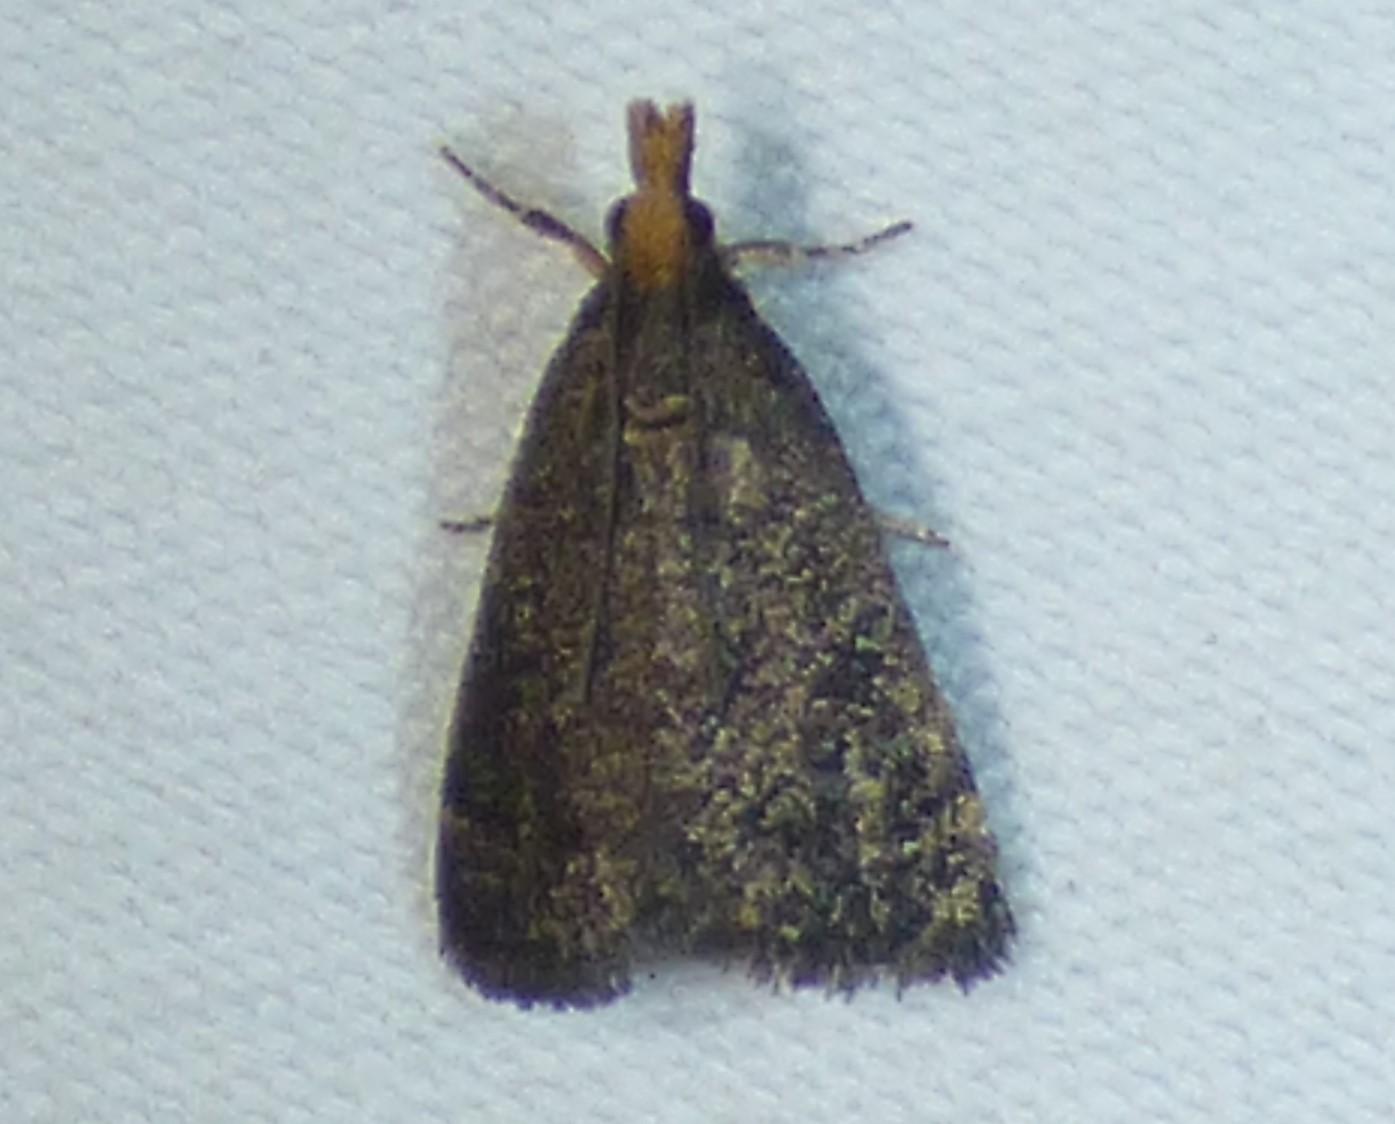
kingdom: Animalia
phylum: Arthropoda
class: Insecta
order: Lepidoptera
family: Crambidae
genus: Pyrausta
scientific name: Pyrausta merrickalis
